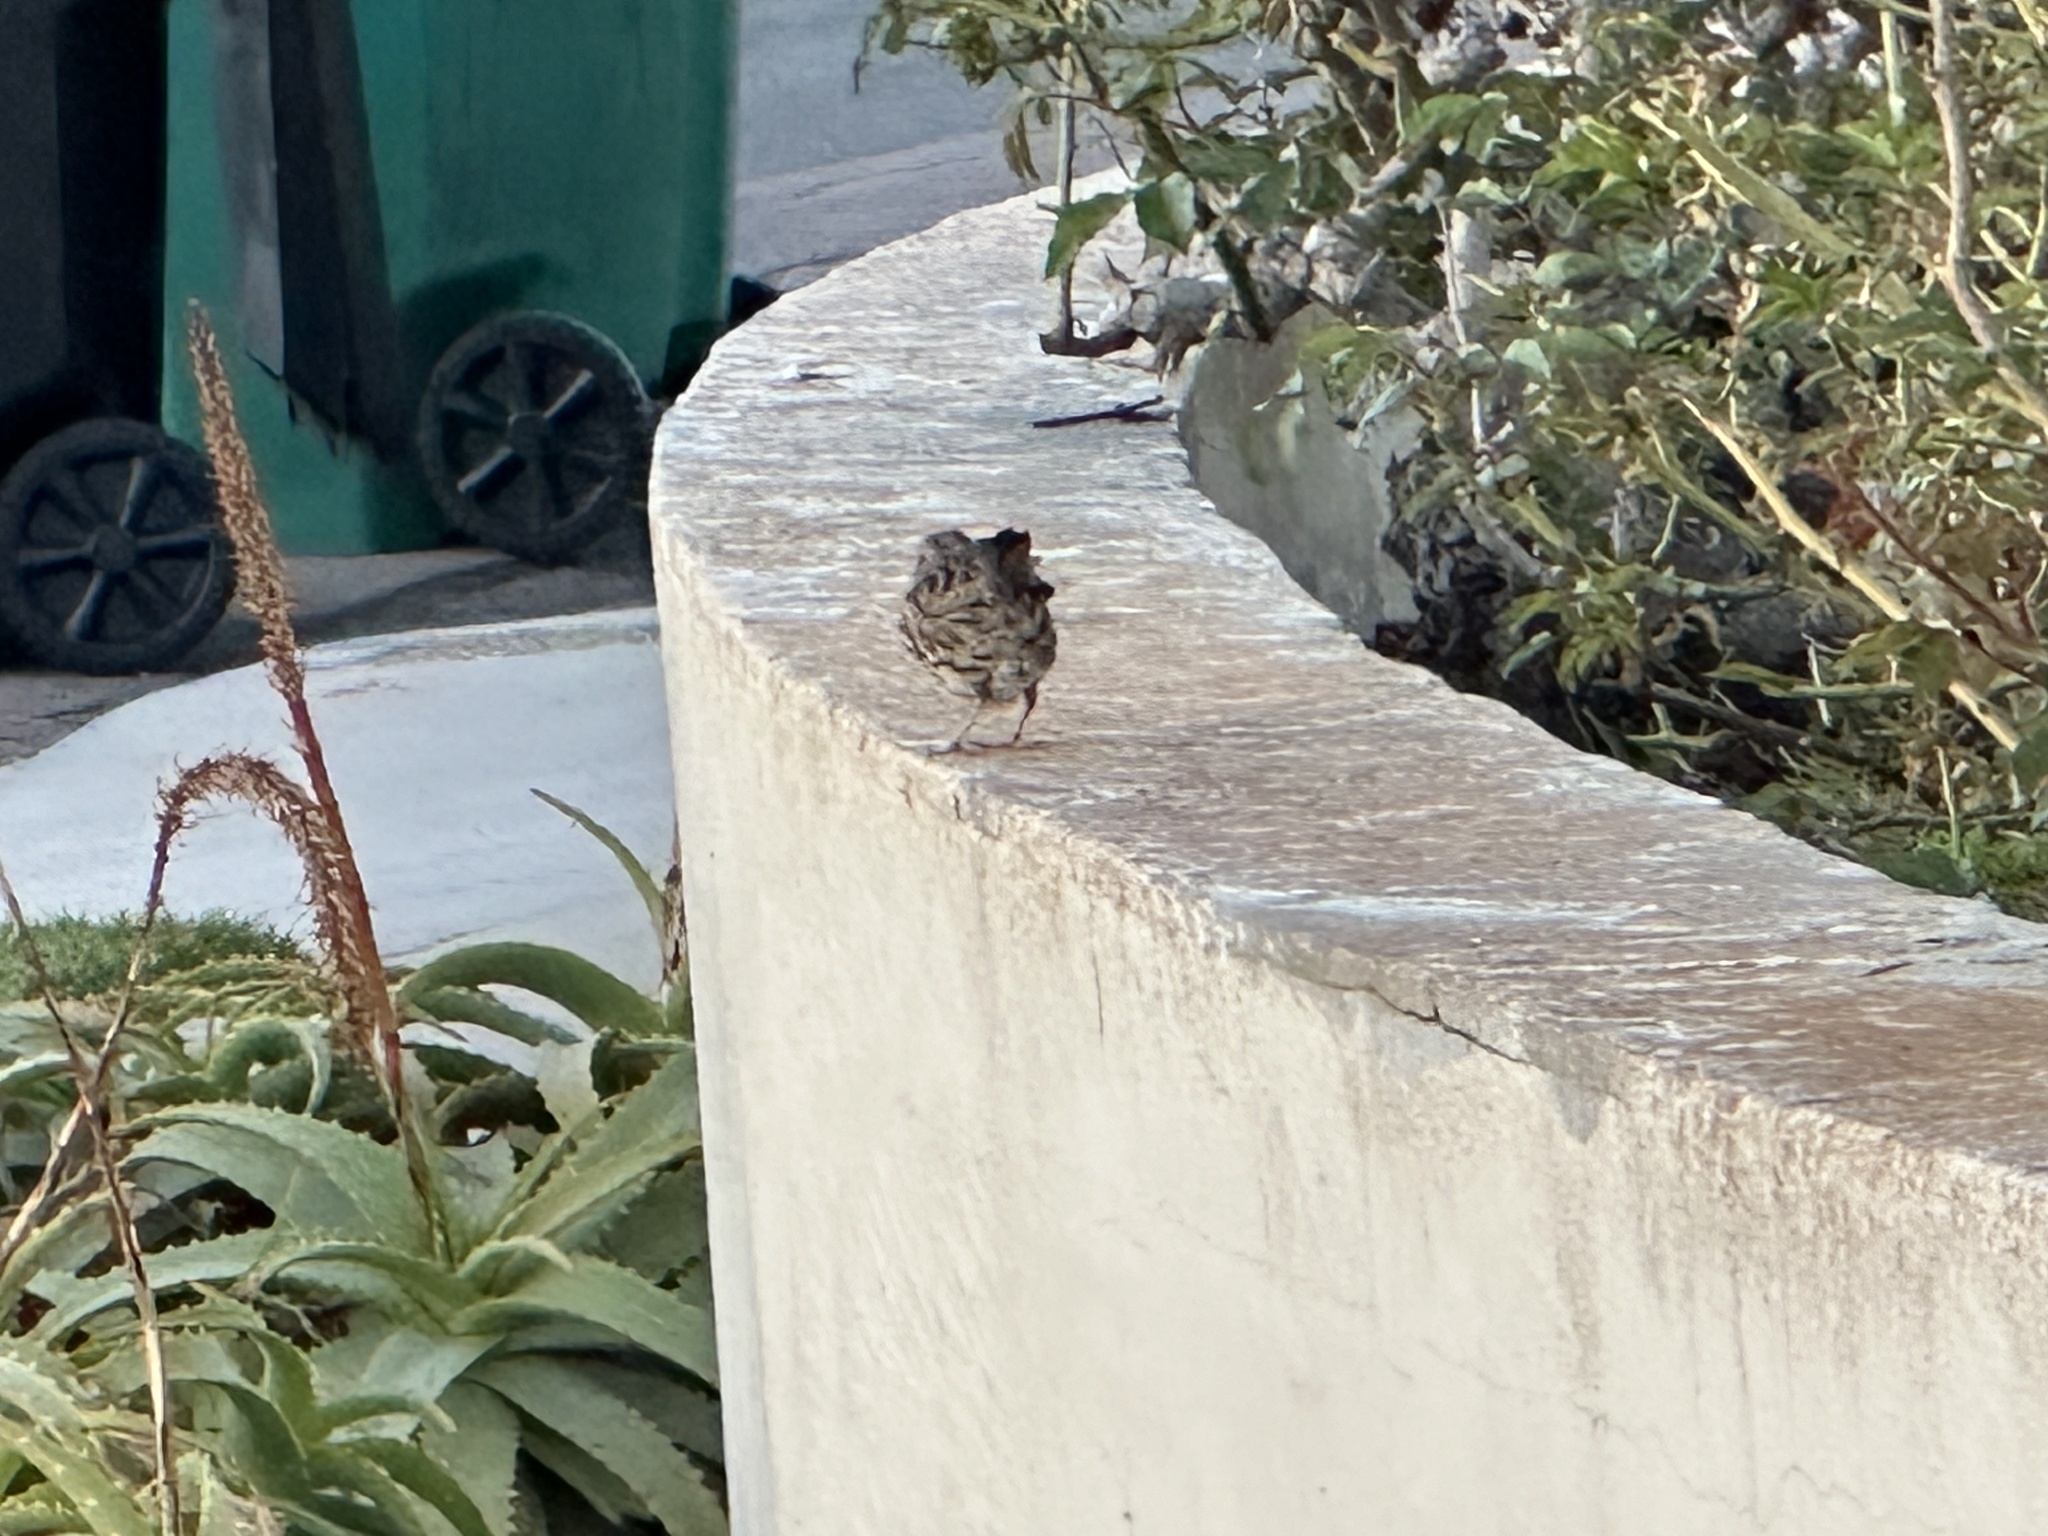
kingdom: Animalia
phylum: Chordata
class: Aves
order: Passeriformes
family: Passerellidae
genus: Melospiza
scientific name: Melospiza melodia
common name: Song sparrow
